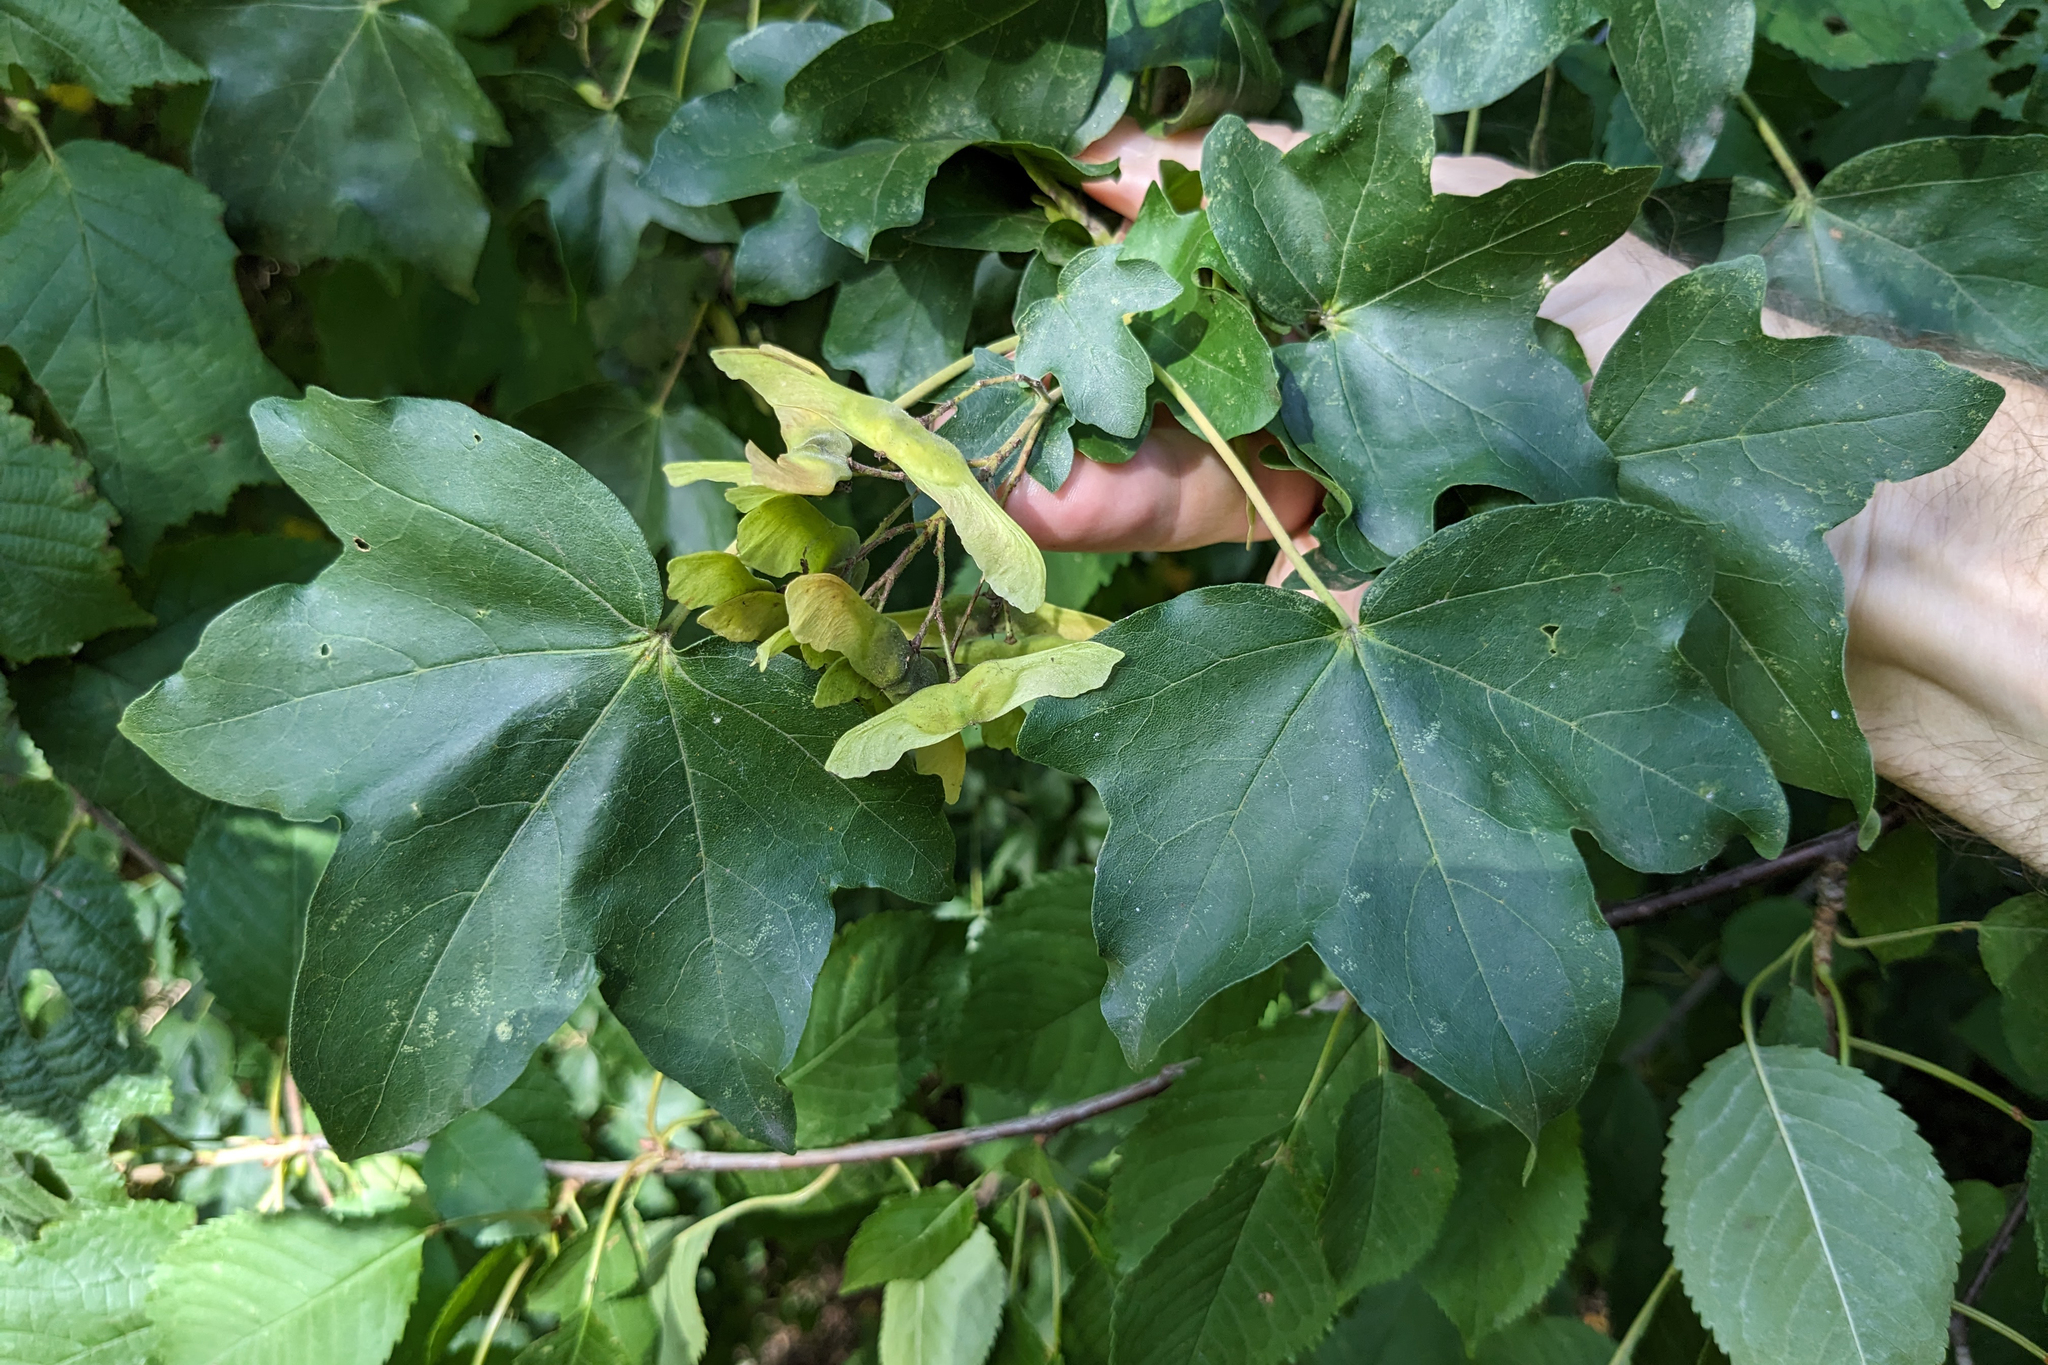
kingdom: Plantae
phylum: Tracheophyta
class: Magnoliopsida
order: Sapindales
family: Sapindaceae
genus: Acer
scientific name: Acer campestre
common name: Field maple
